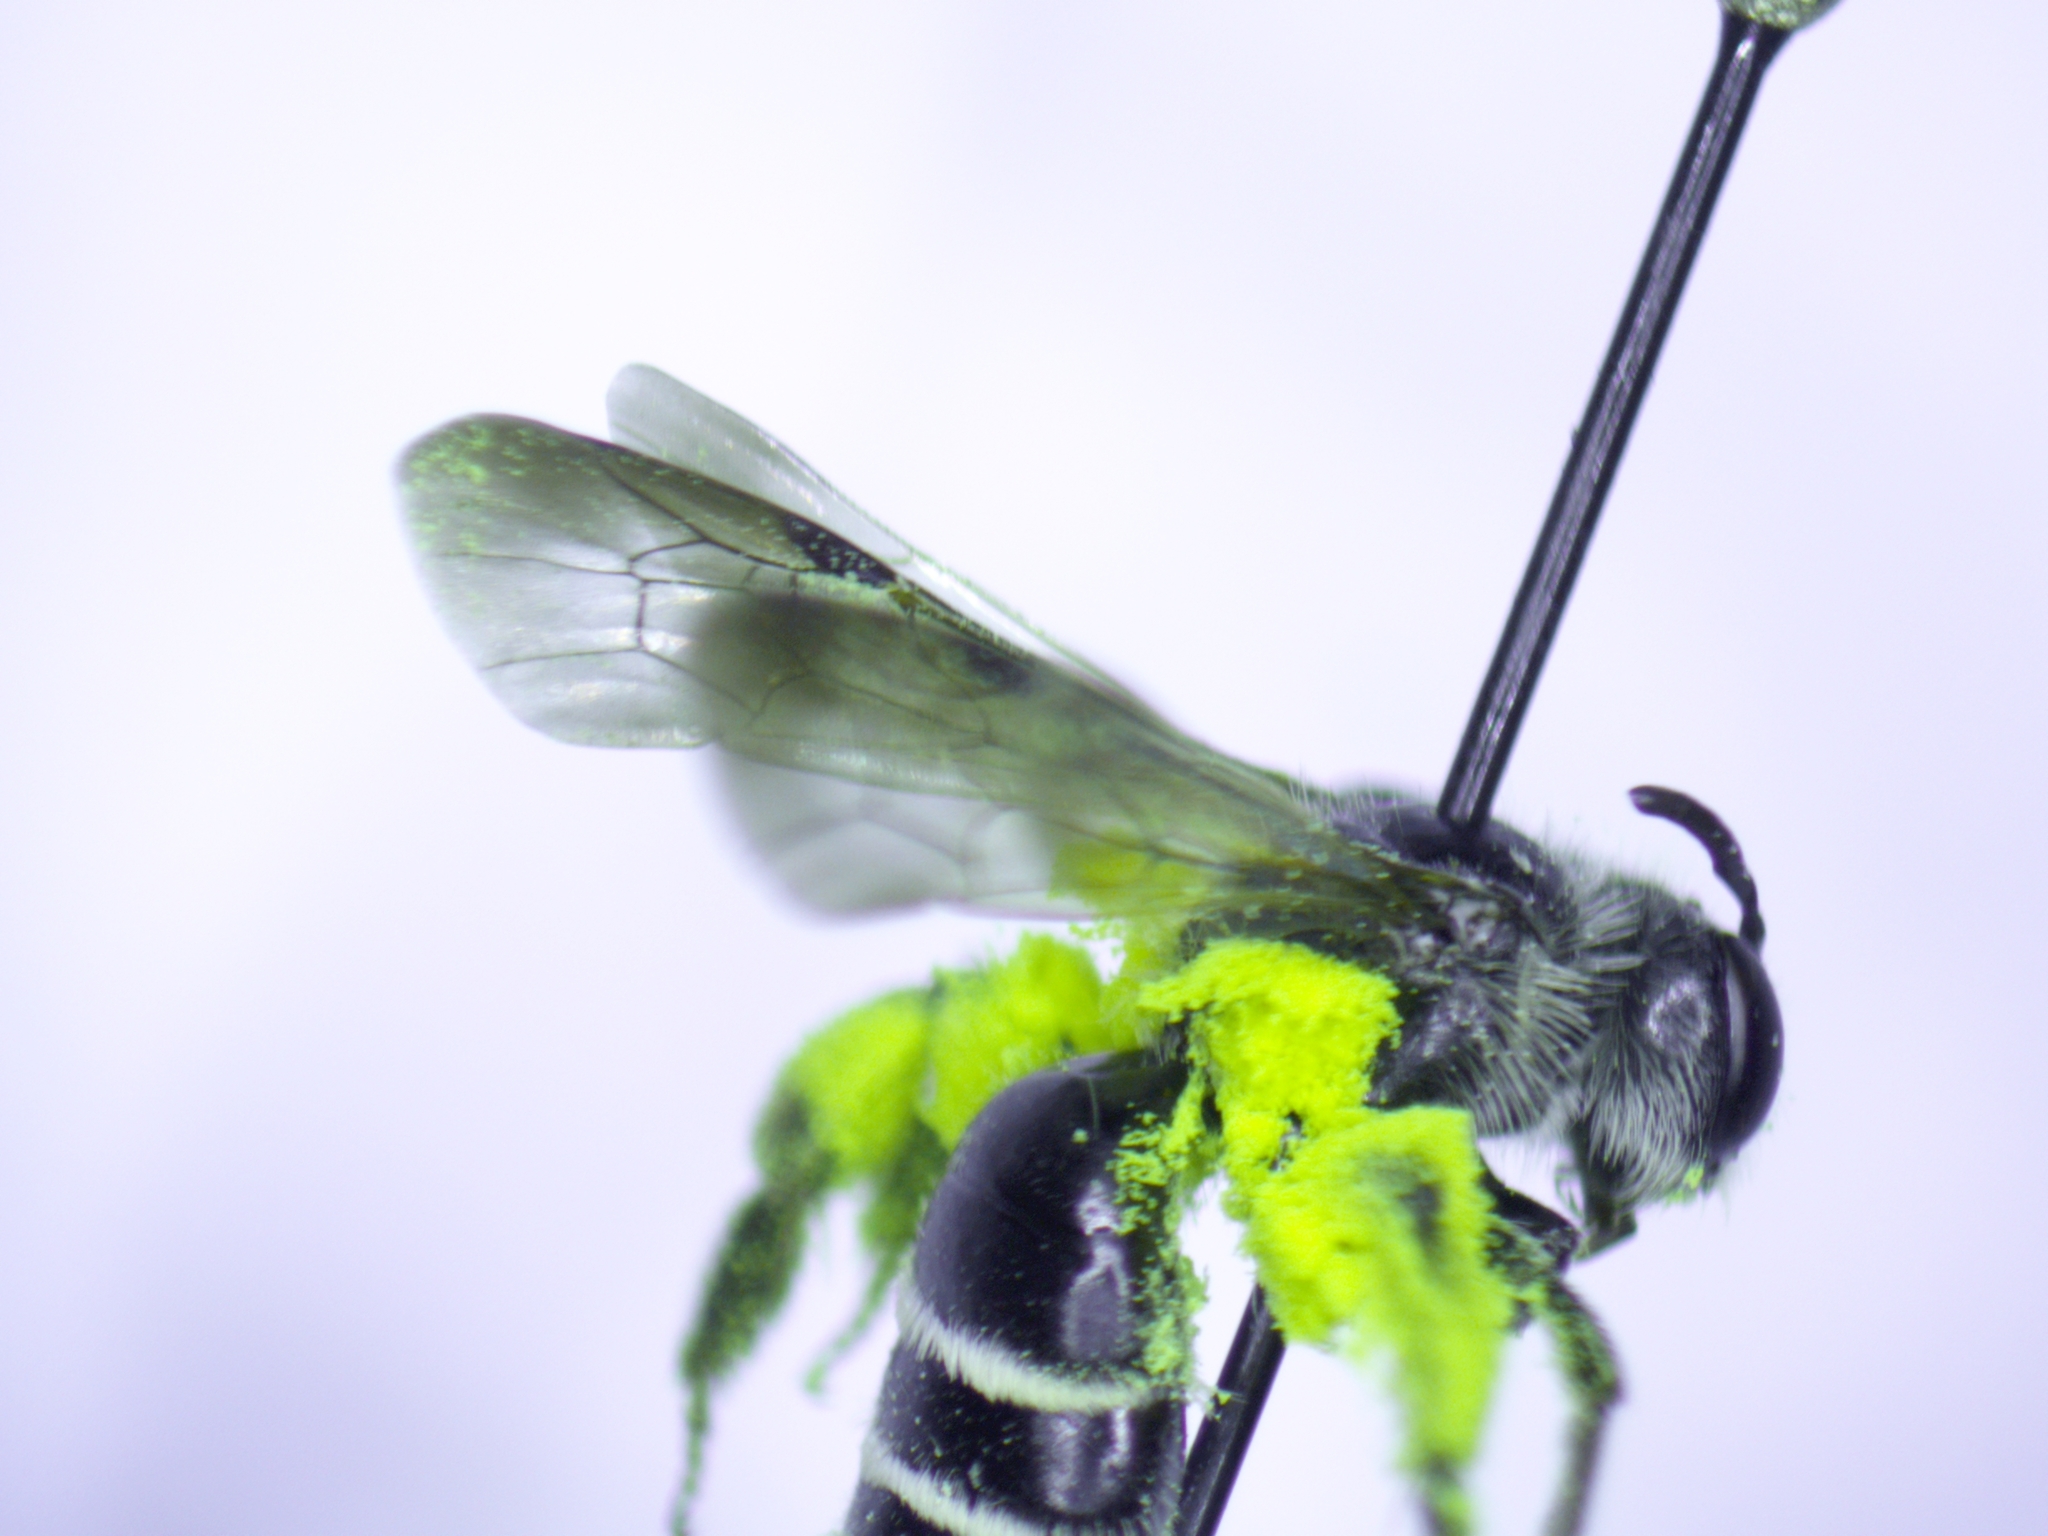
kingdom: Animalia
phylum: Arthropoda
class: Insecta
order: Hymenoptera
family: Andrenidae
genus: Andrena
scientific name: Andrena nubecula
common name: Cloudy-winged mining bee
